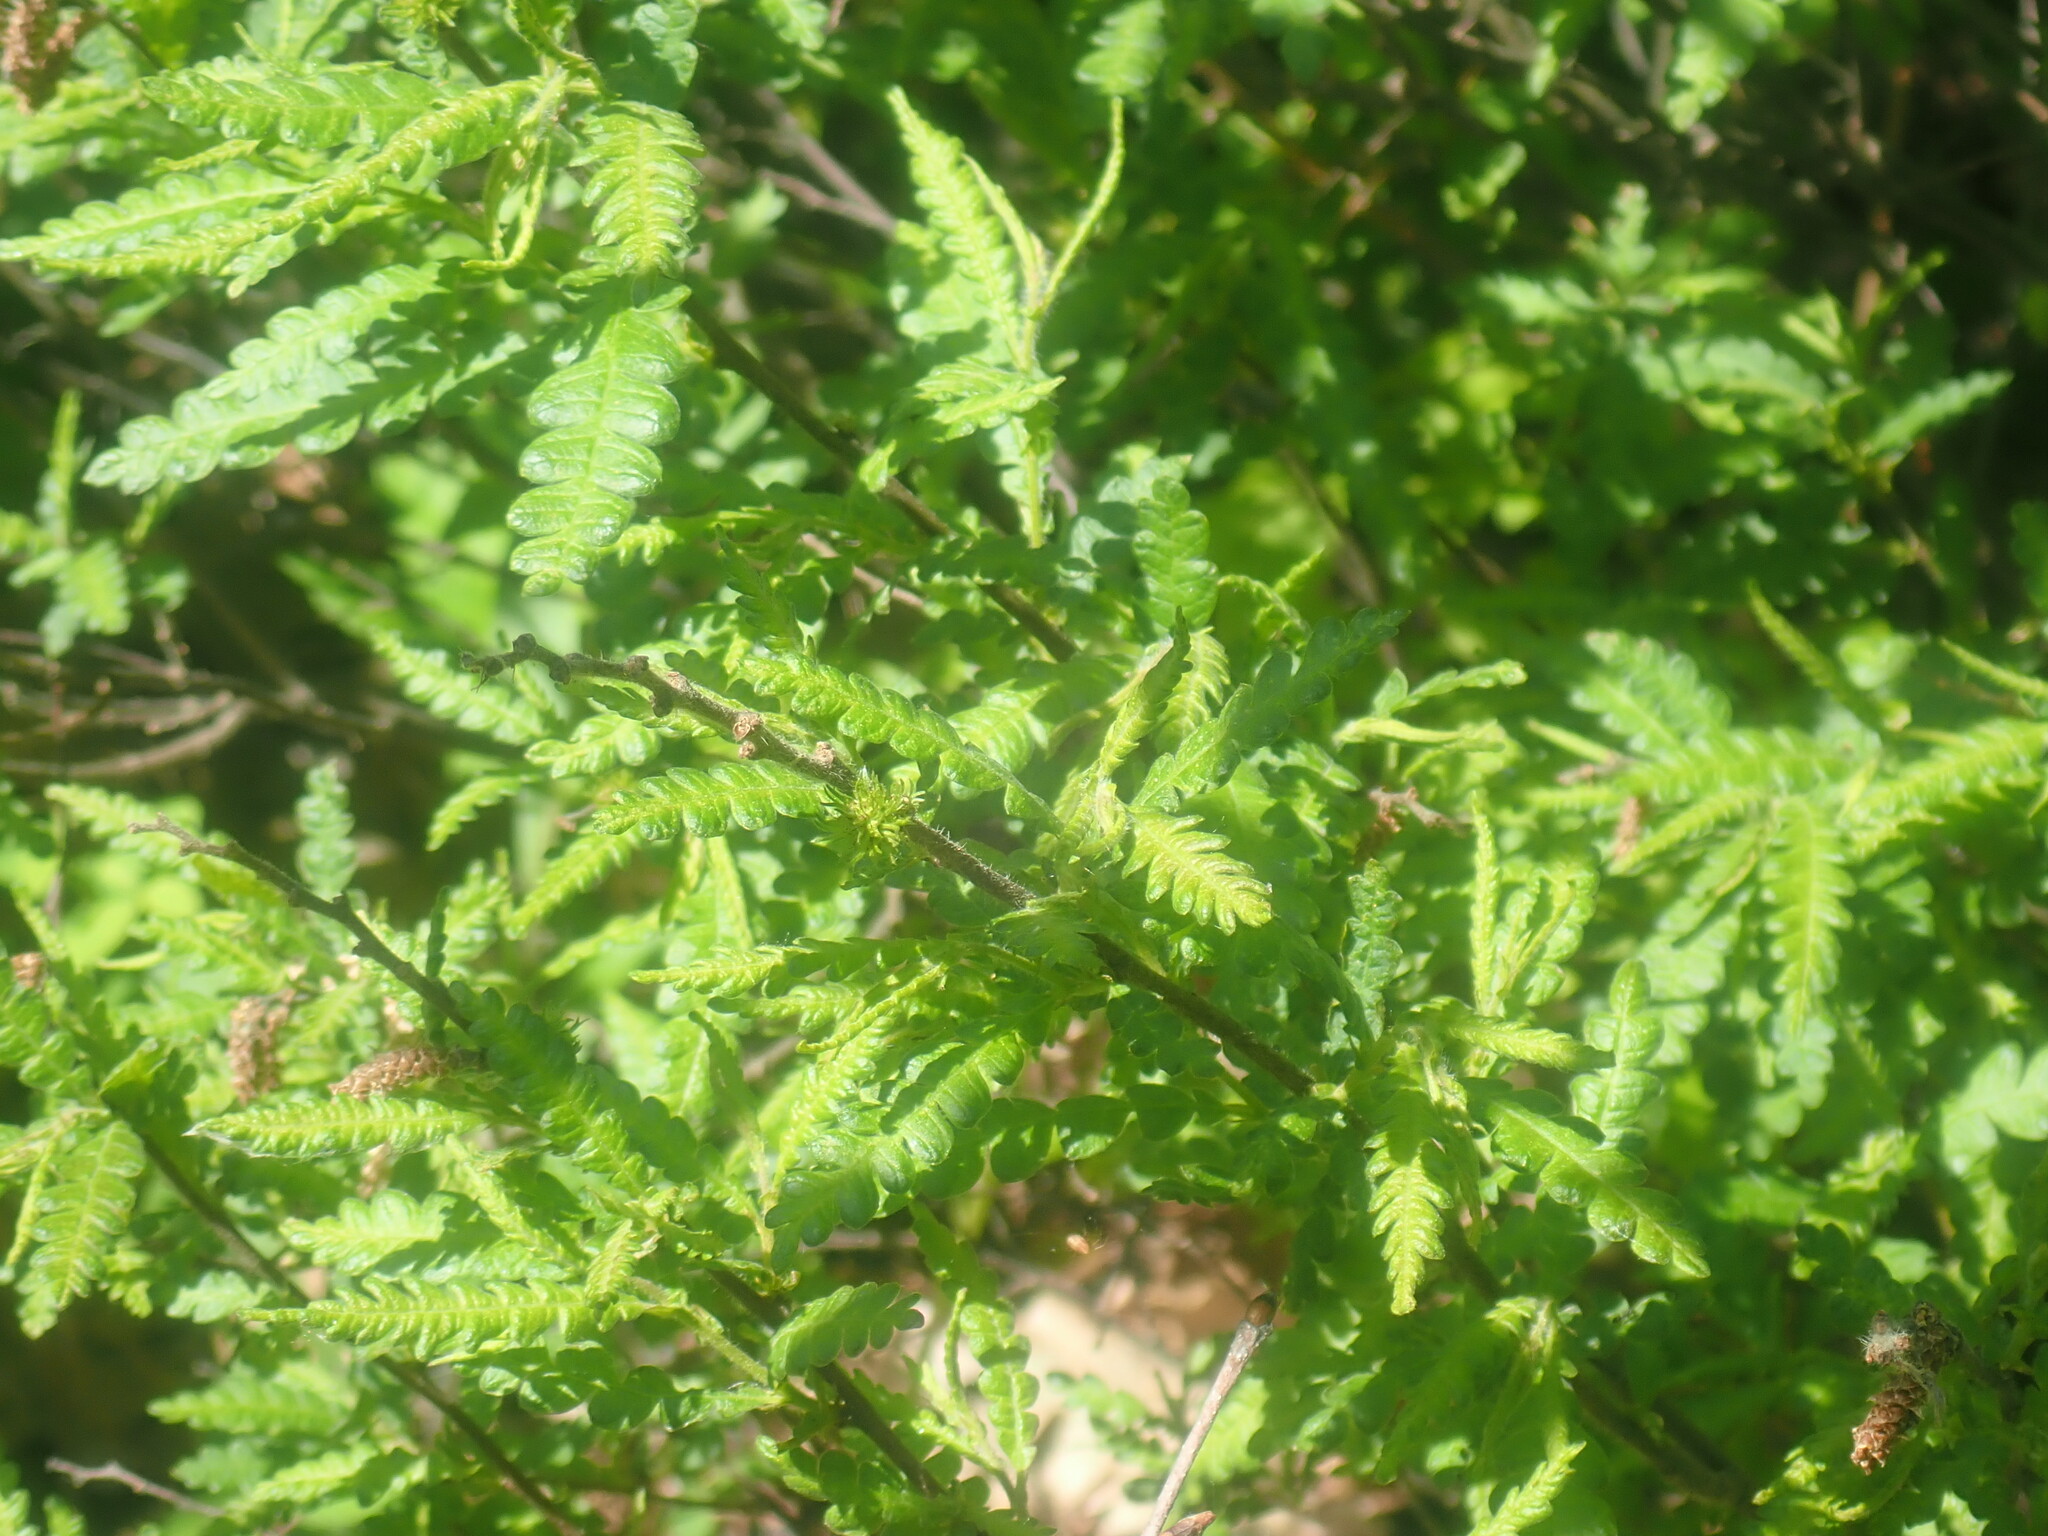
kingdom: Plantae
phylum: Tracheophyta
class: Magnoliopsida
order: Fagales
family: Myricaceae
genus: Comptonia
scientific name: Comptonia peregrina
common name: Sweet-fern
